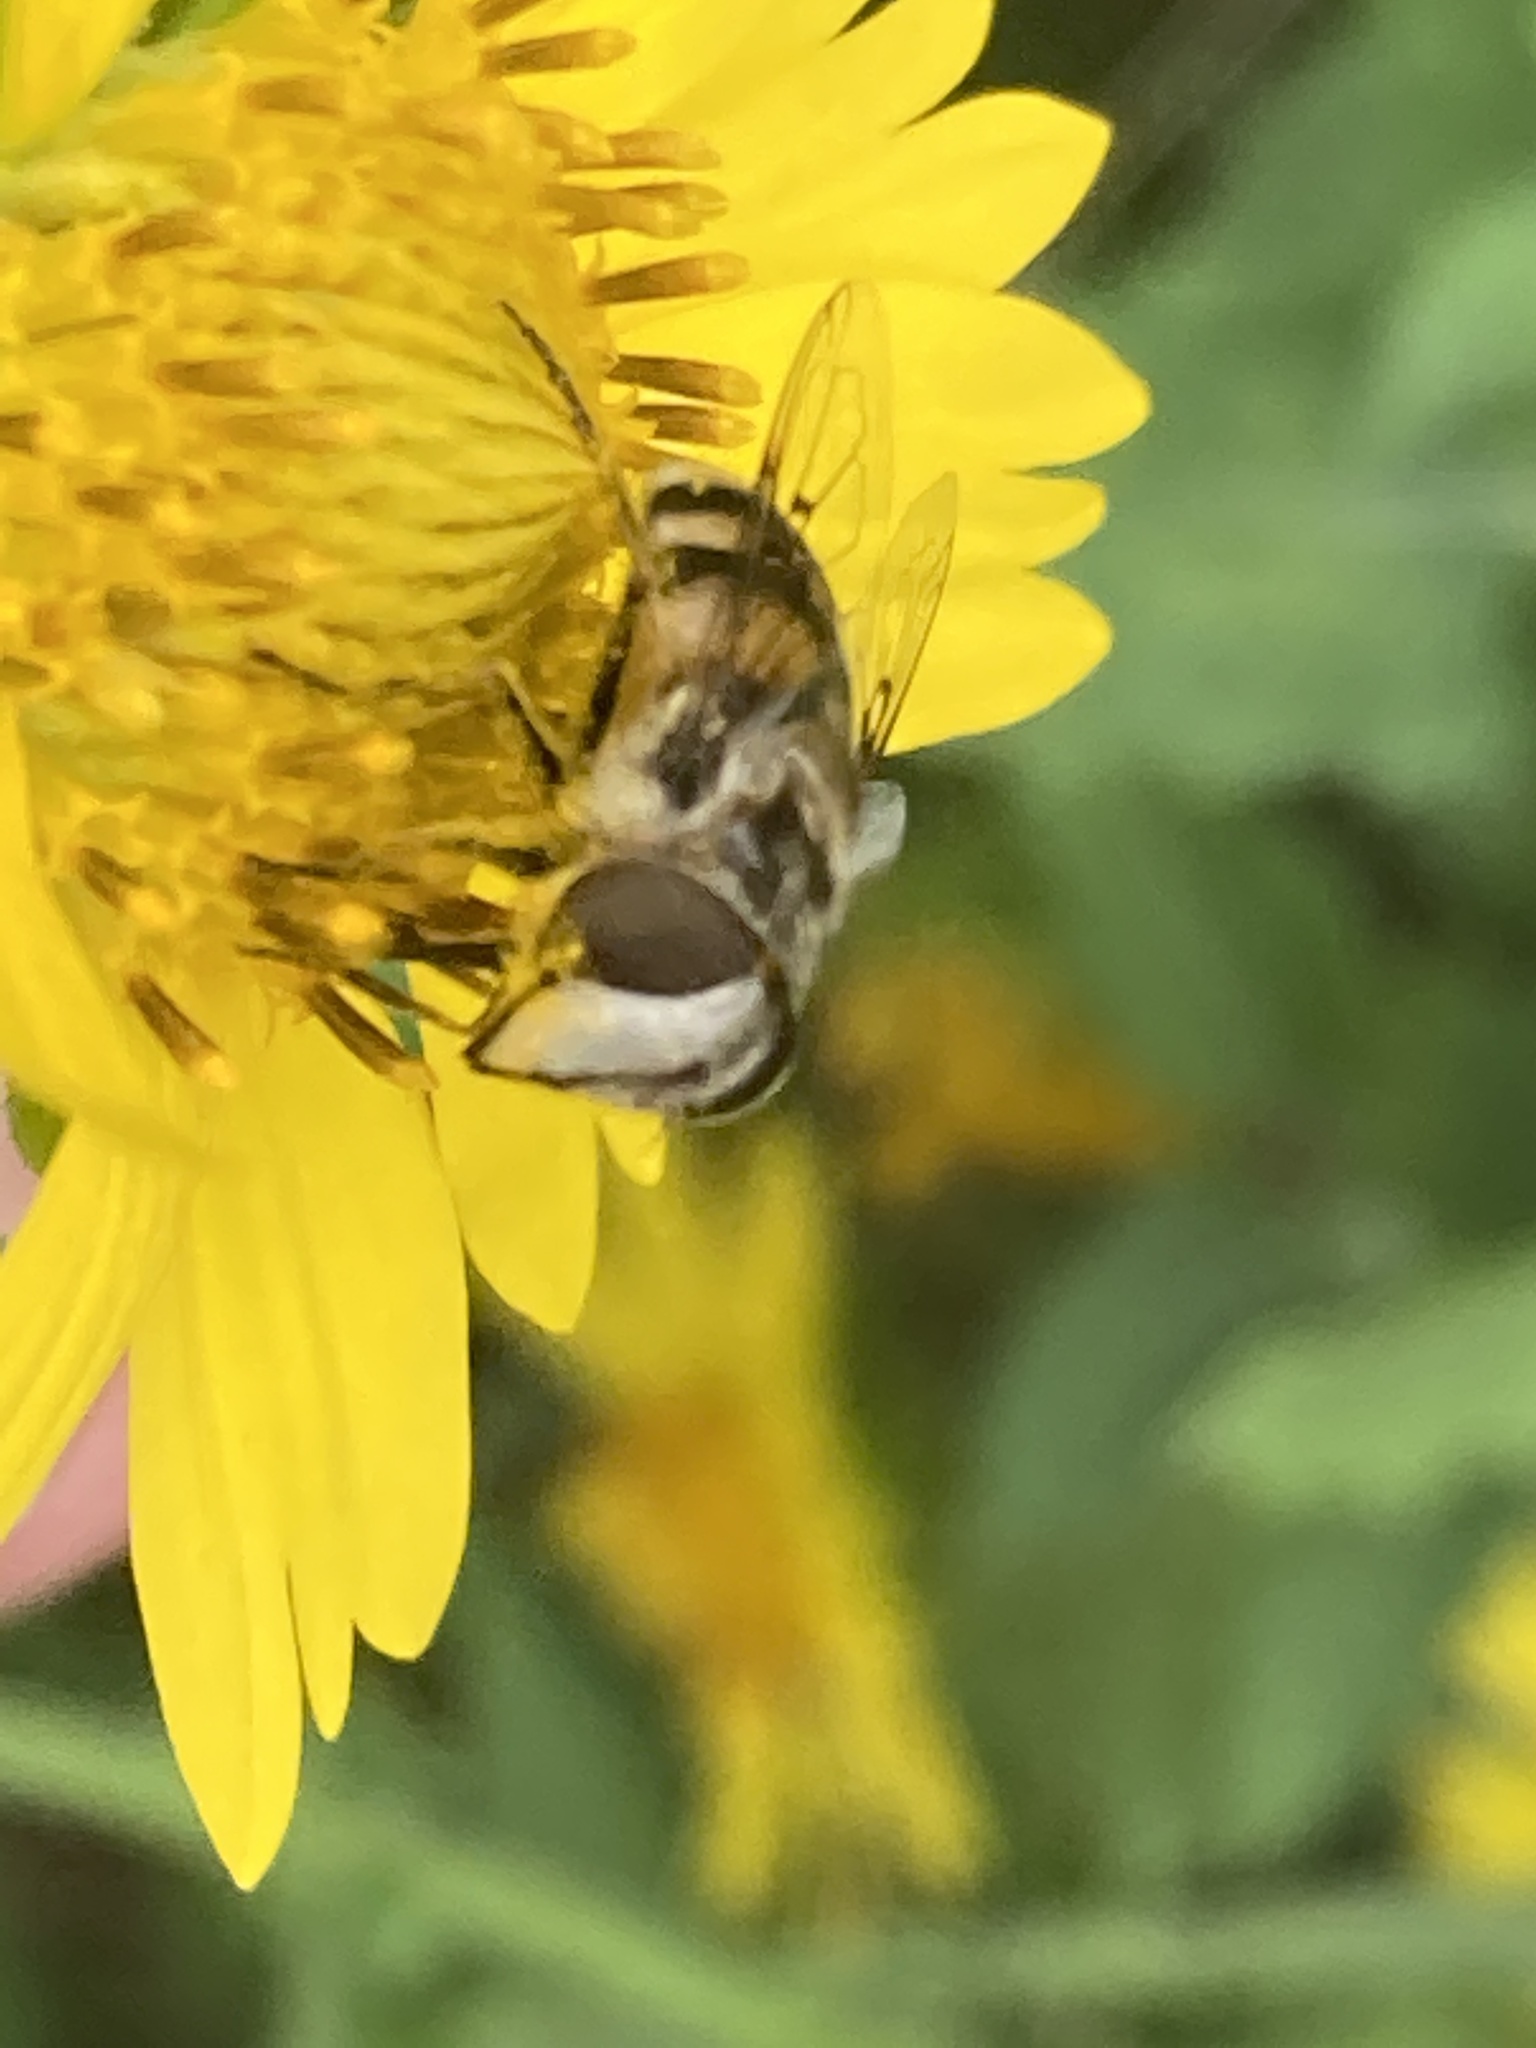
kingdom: Animalia
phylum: Arthropoda
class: Insecta
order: Diptera
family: Syrphidae
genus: Copestylum
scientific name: Copestylum avidum
